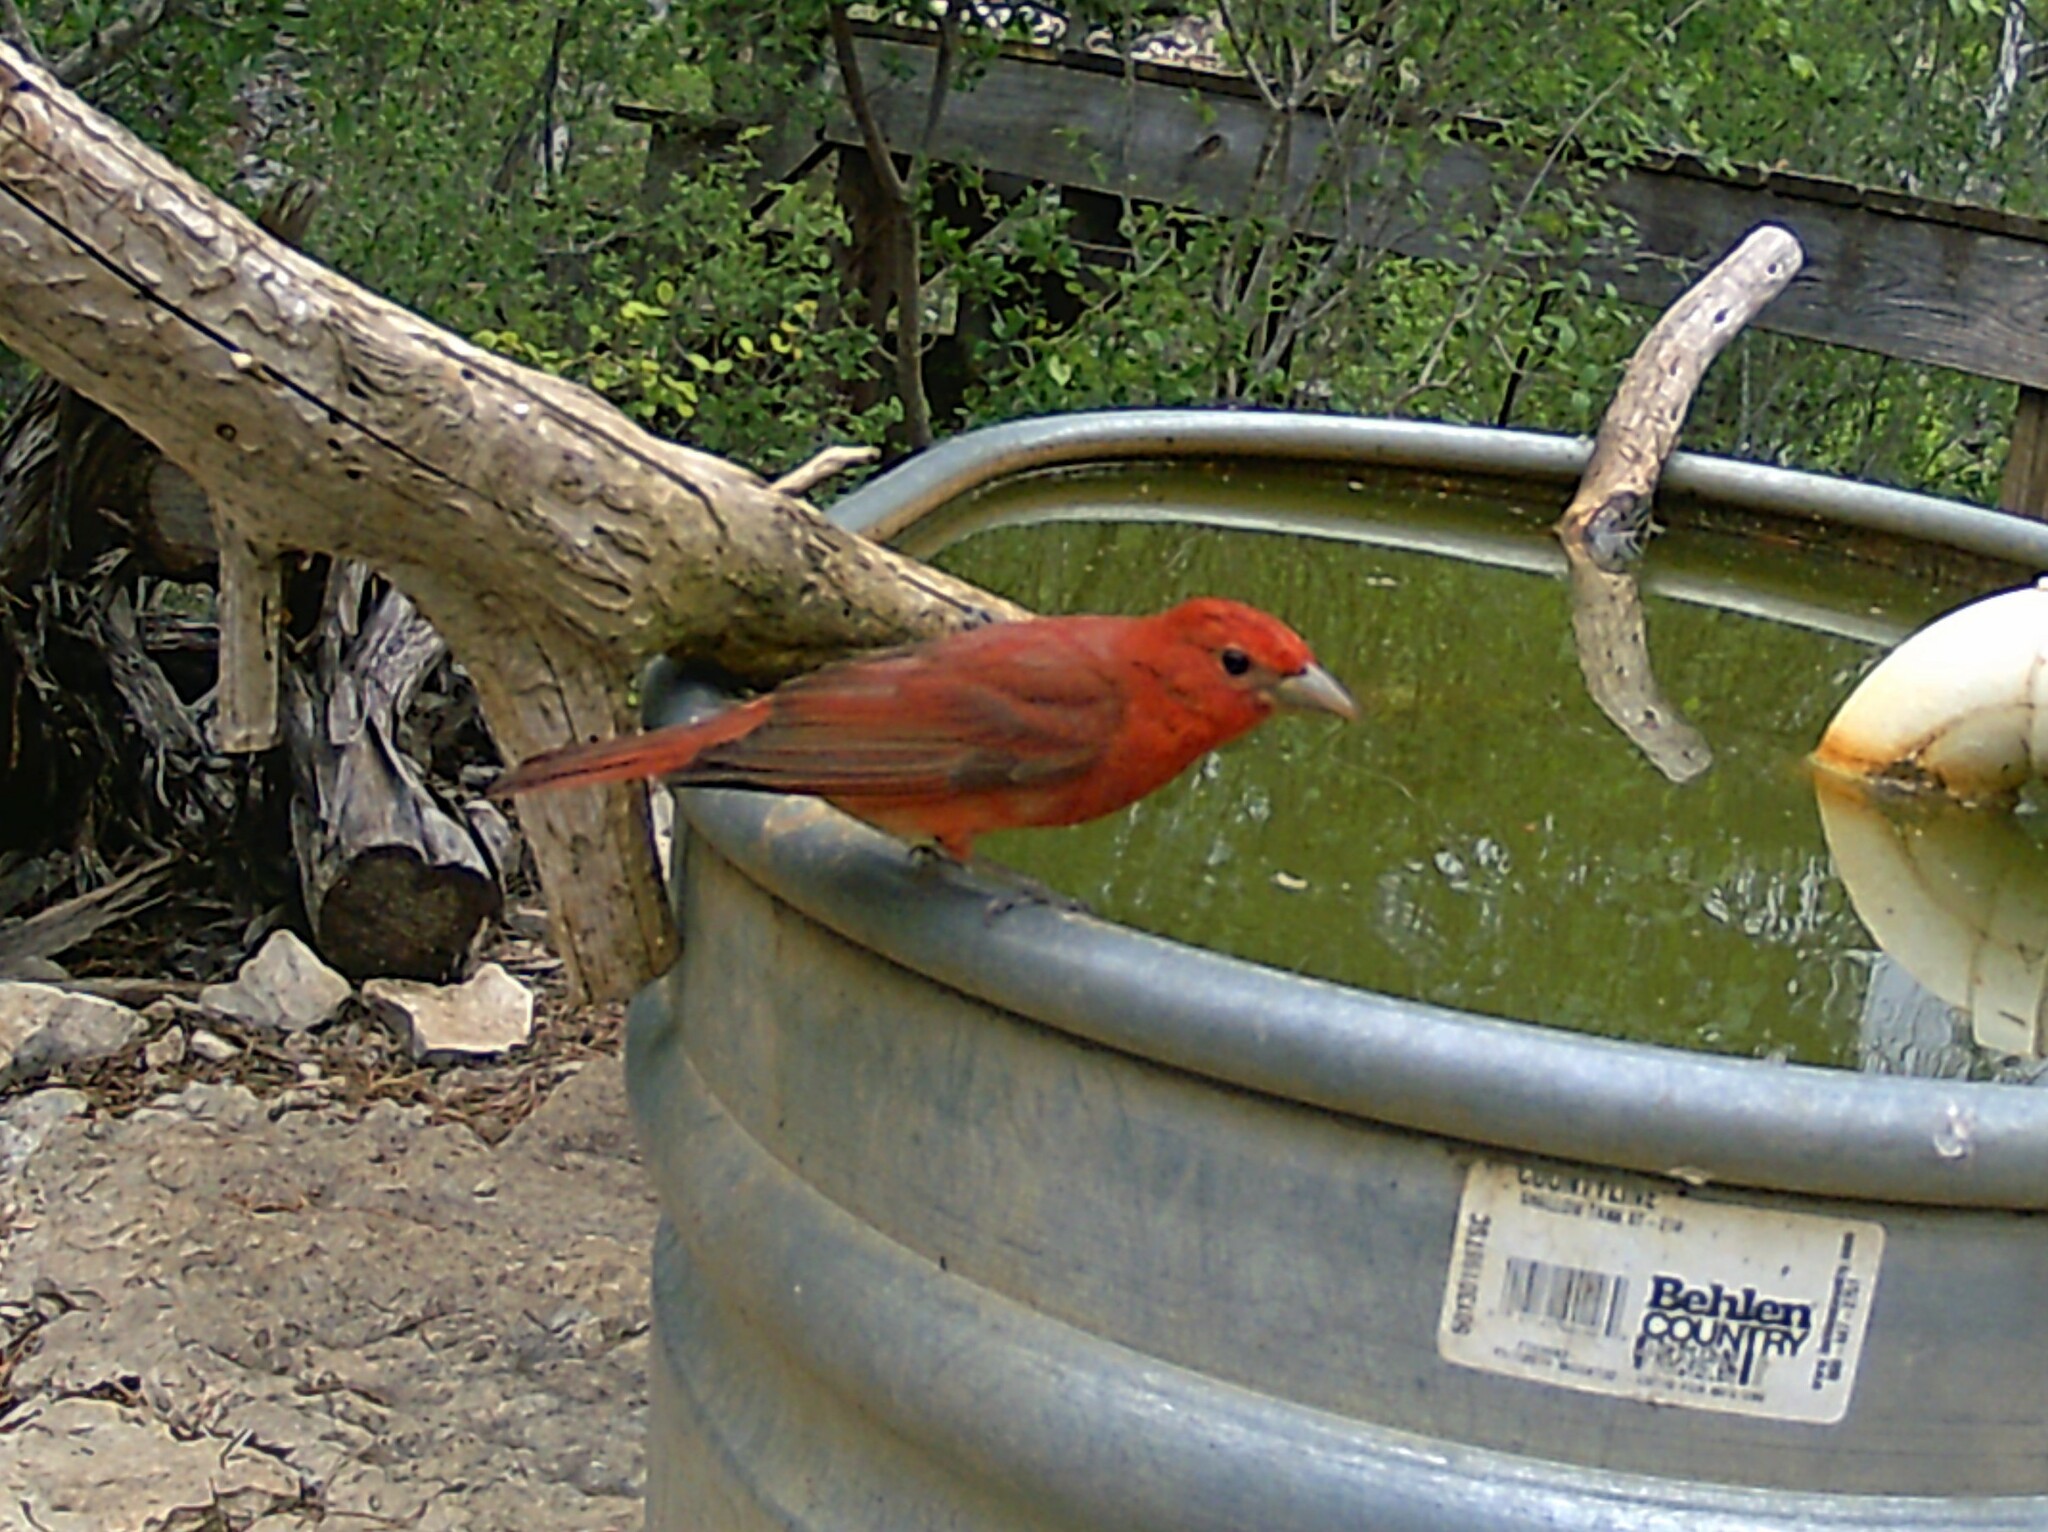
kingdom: Animalia
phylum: Chordata
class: Aves
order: Passeriformes
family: Cardinalidae
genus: Piranga
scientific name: Piranga rubra
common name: Summer tanager
